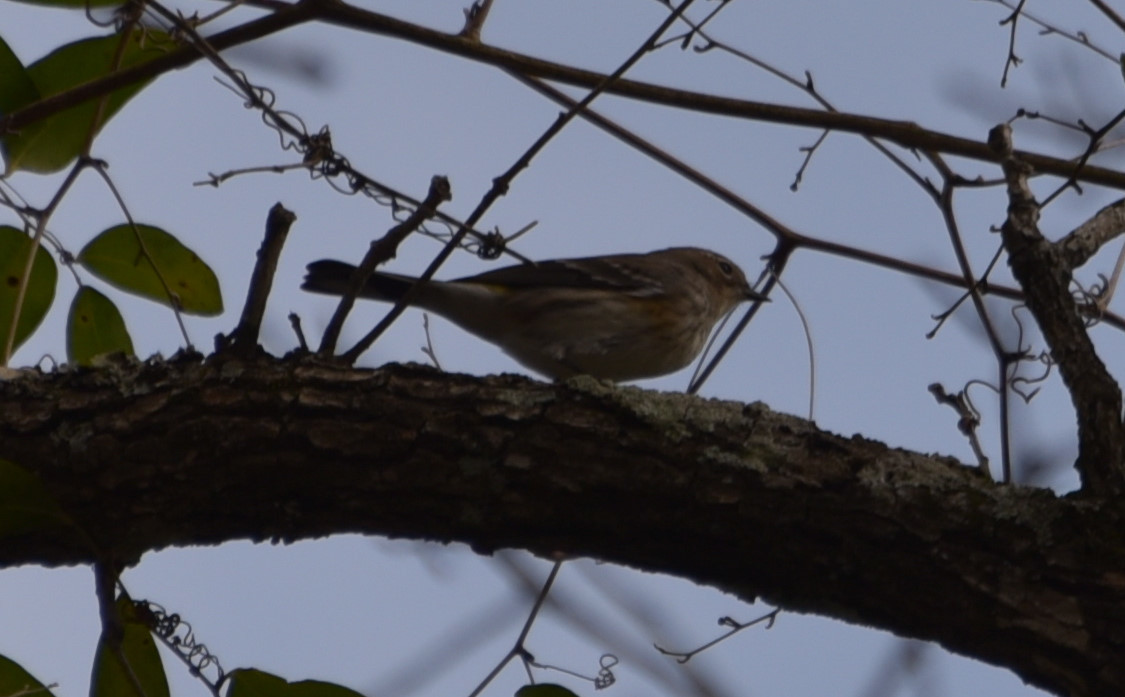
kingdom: Animalia
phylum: Chordata
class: Aves
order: Passeriformes
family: Parulidae
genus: Setophaga
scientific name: Setophaga coronata
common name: Myrtle warbler
